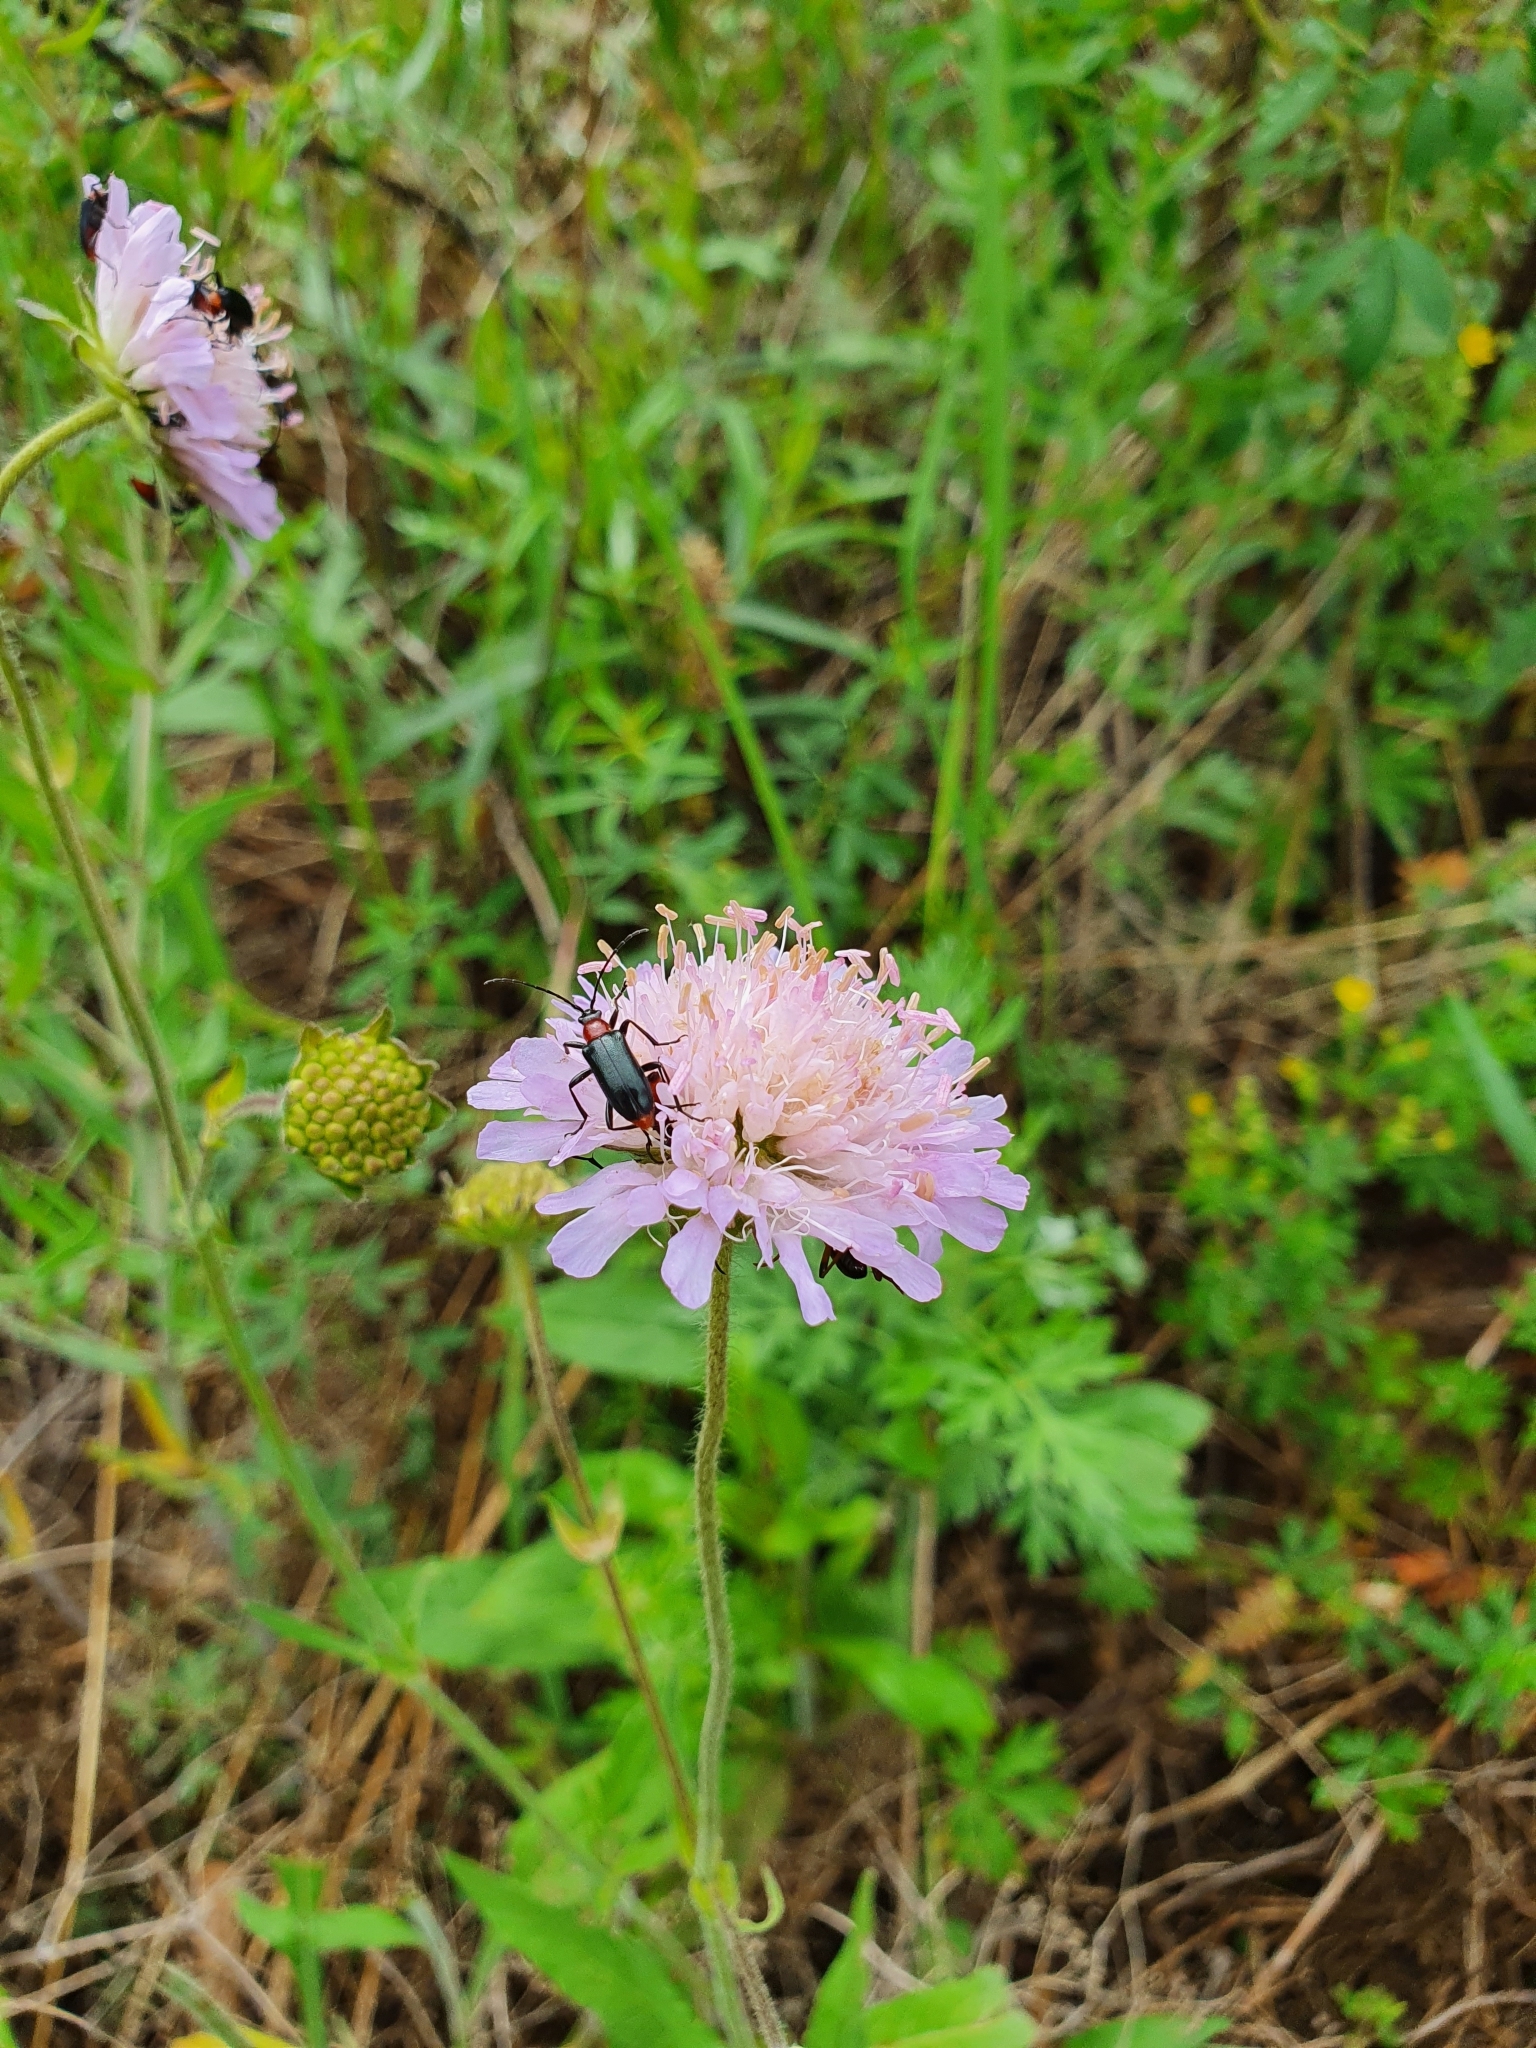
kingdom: Plantae
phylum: Tracheophyta
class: Magnoliopsida
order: Dipsacales
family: Caprifoliaceae
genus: Knautia
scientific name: Knautia arvensis
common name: Field scabiosa
